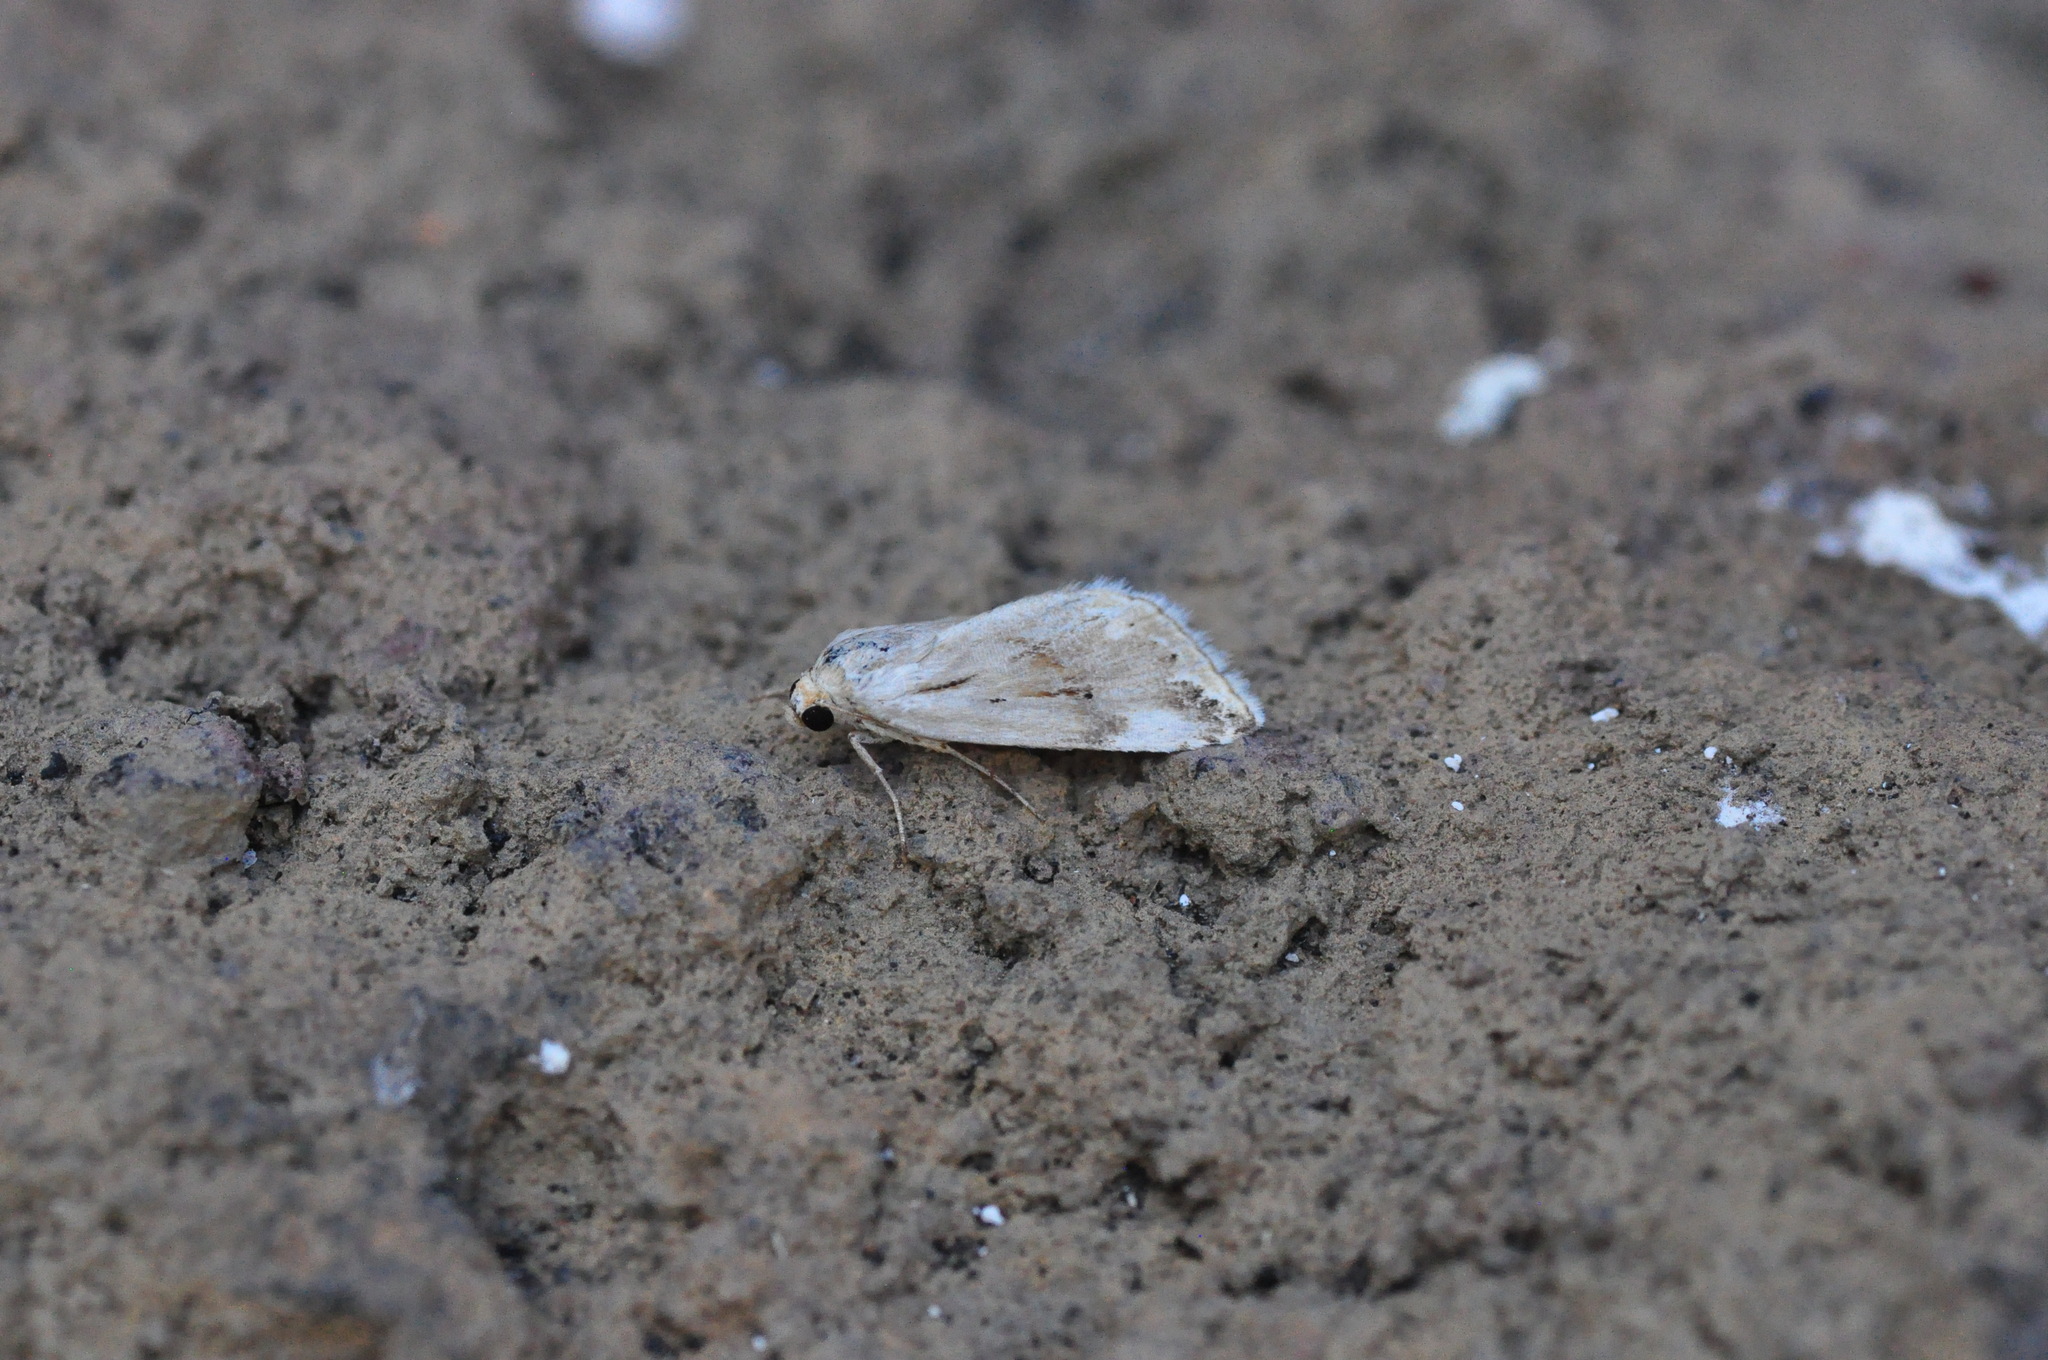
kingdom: Animalia
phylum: Arthropoda
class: Insecta
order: Lepidoptera
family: Noctuidae
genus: Eublemma
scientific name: Eublemma ostrina
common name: Purple marbled
